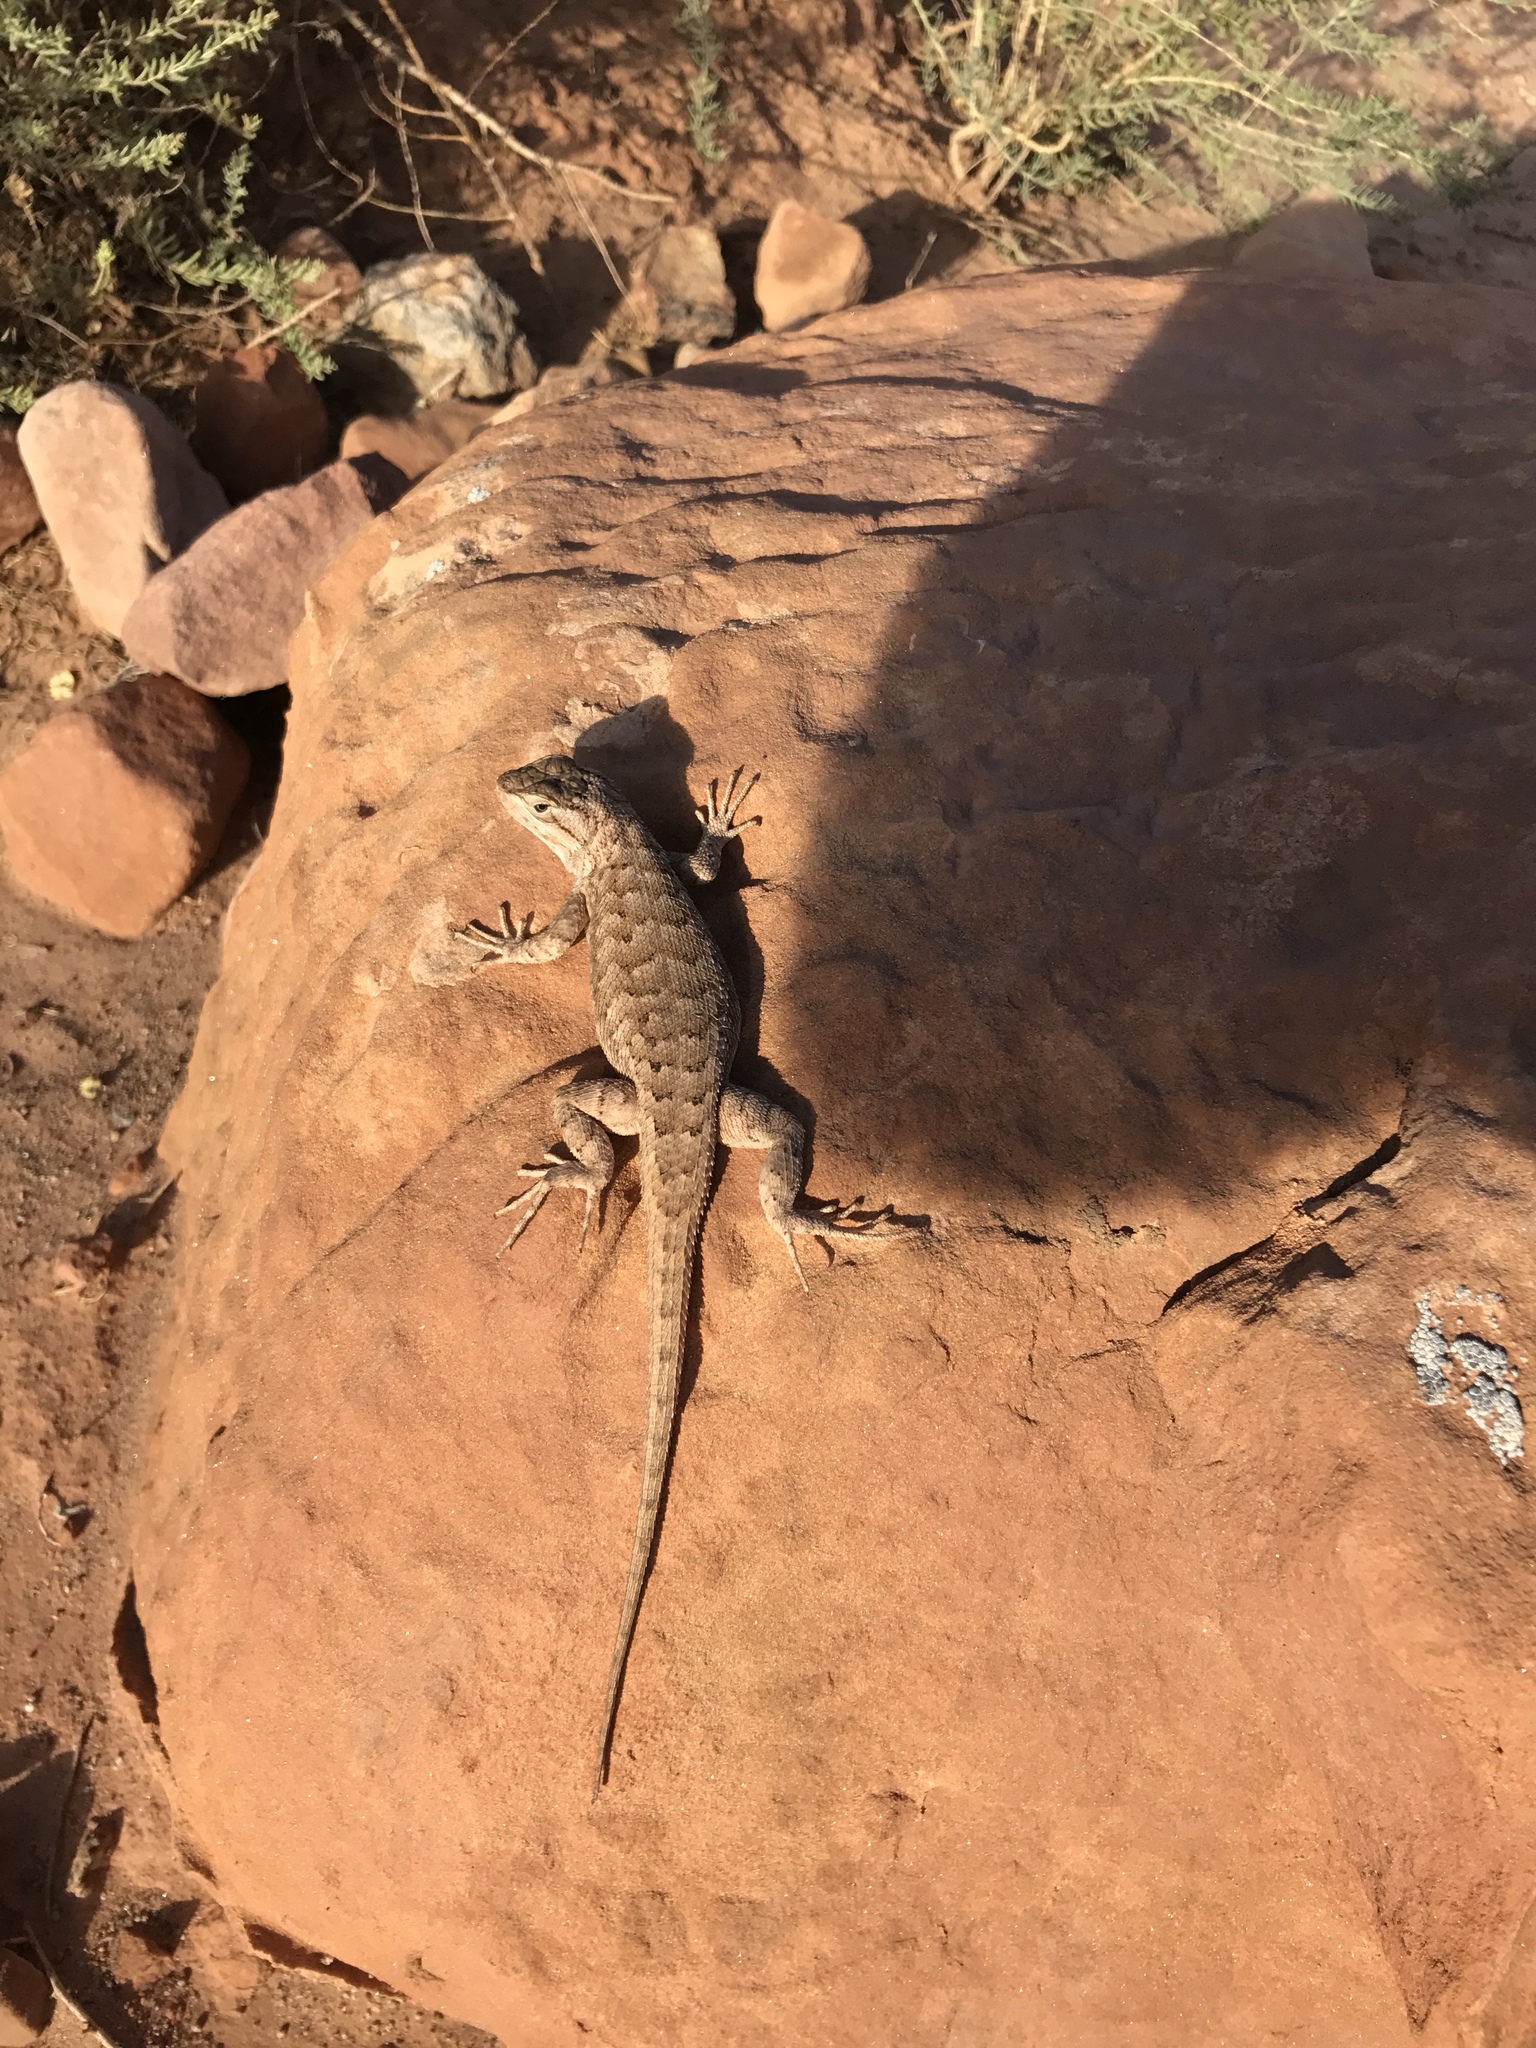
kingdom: Animalia
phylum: Chordata
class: Squamata
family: Phrynosomatidae
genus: Sceloporus
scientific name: Sceloporus tristichus
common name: Plateau fence lizard
